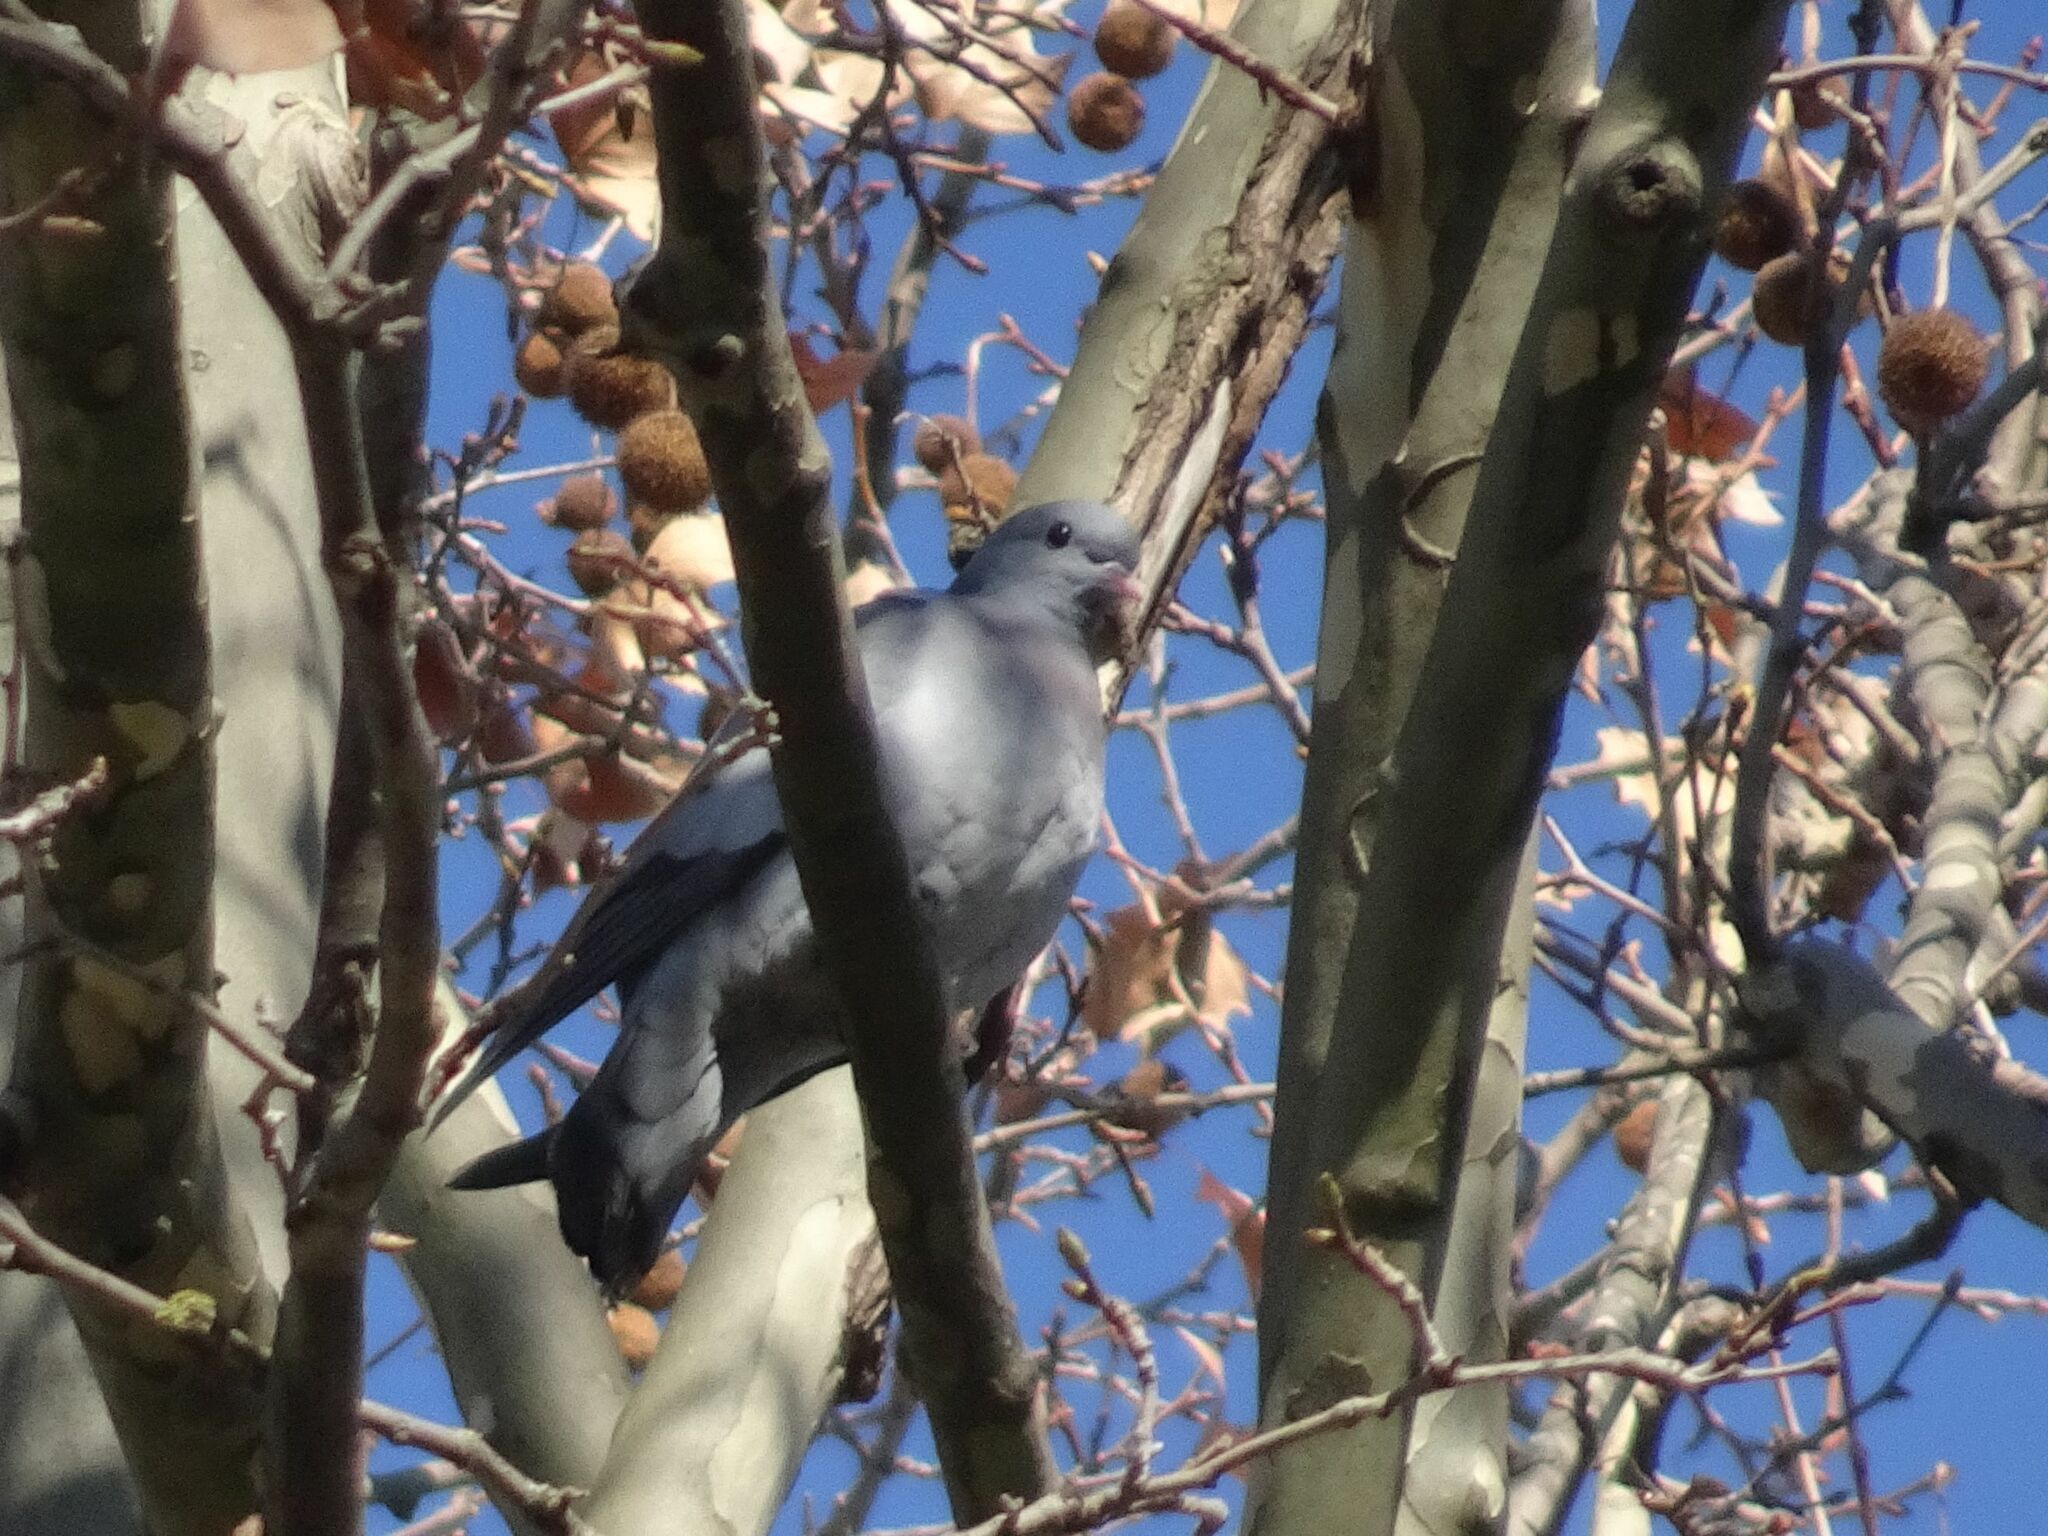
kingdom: Animalia
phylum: Chordata
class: Aves
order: Columbiformes
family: Columbidae
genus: Columba
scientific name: Columba oenas
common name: Stock dove
